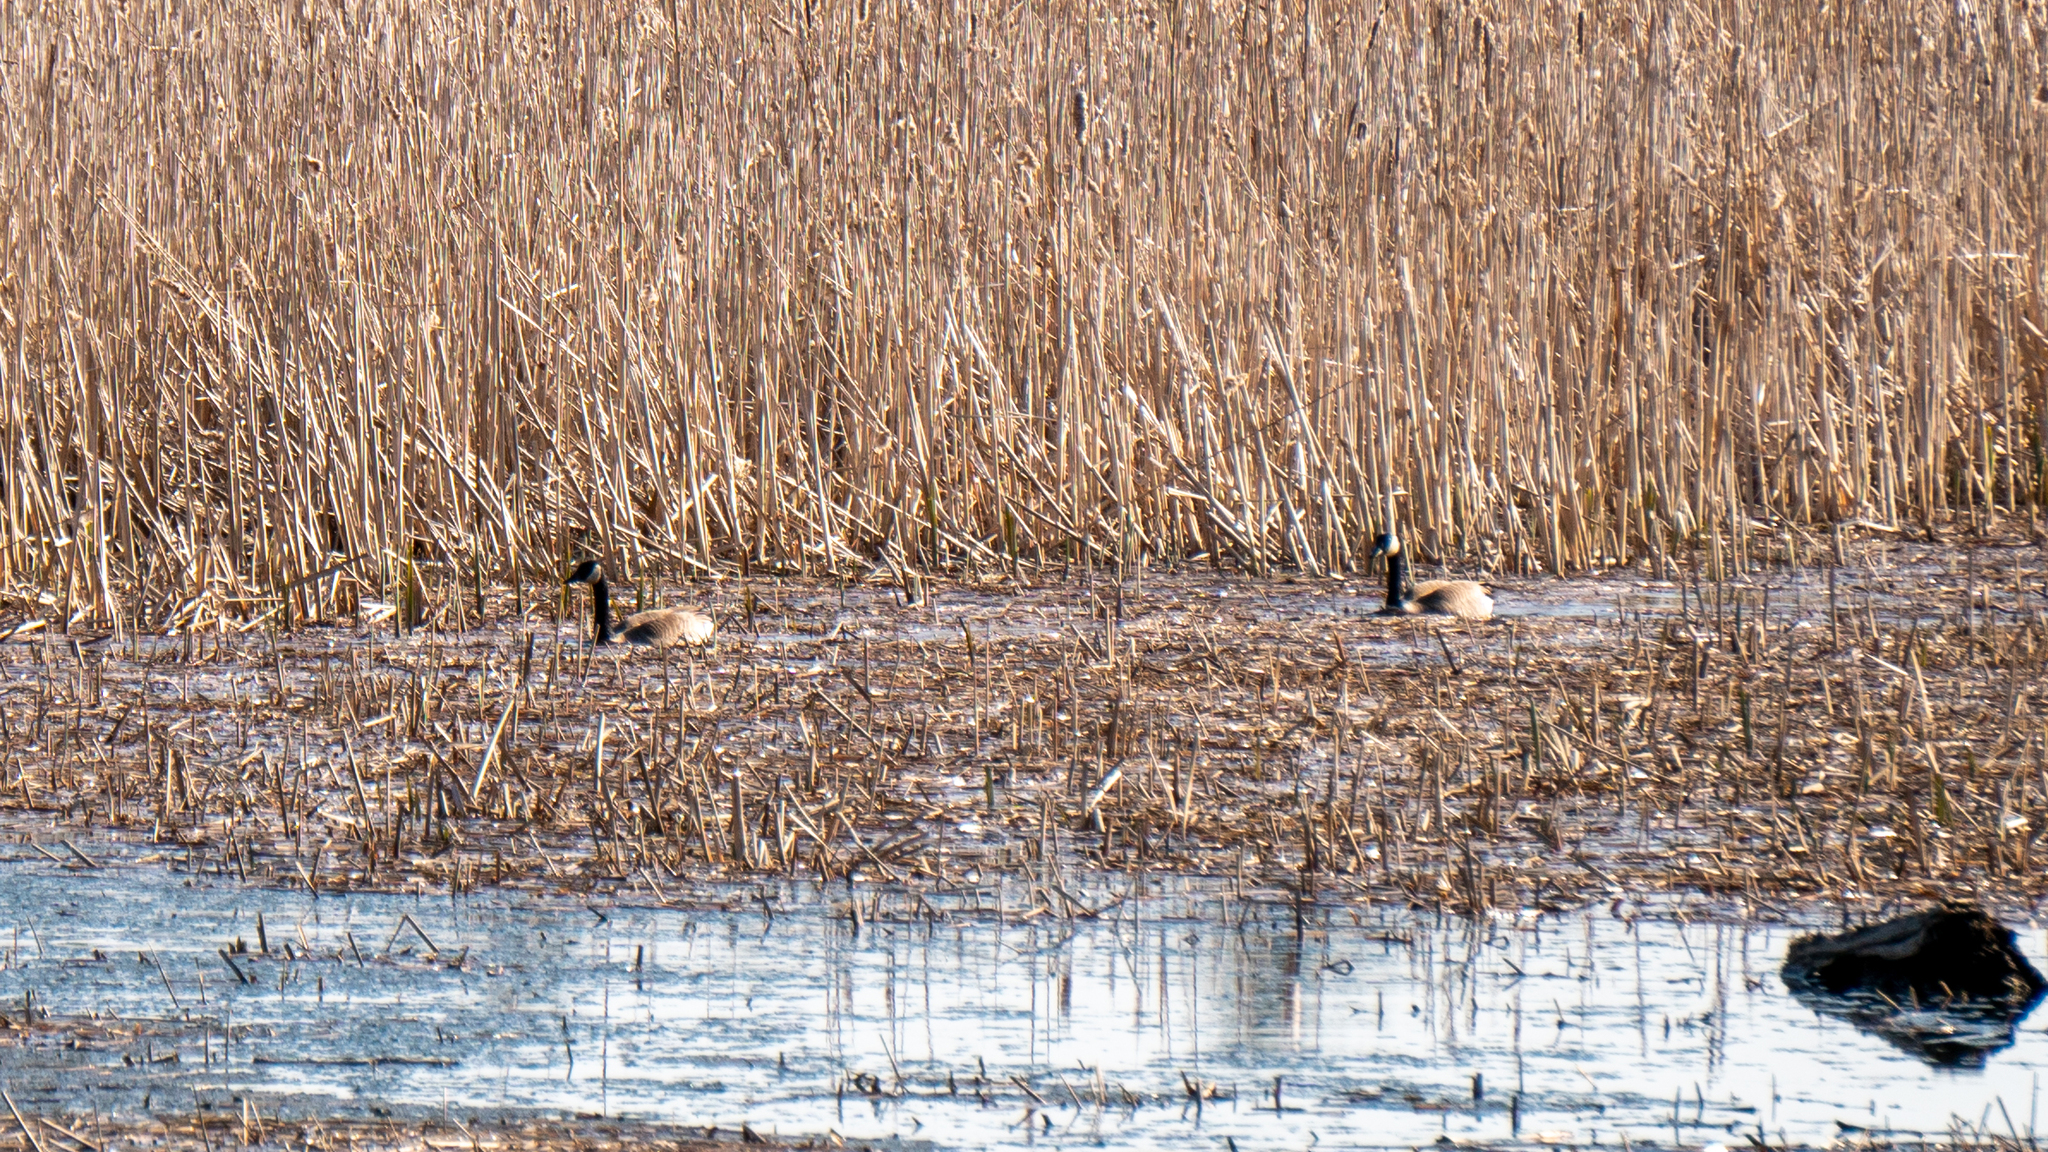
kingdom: Animalia
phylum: Chordata
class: Aves
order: Anseriformes
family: Anatidae
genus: Branta
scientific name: Branta canadensis
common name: Canada goose
